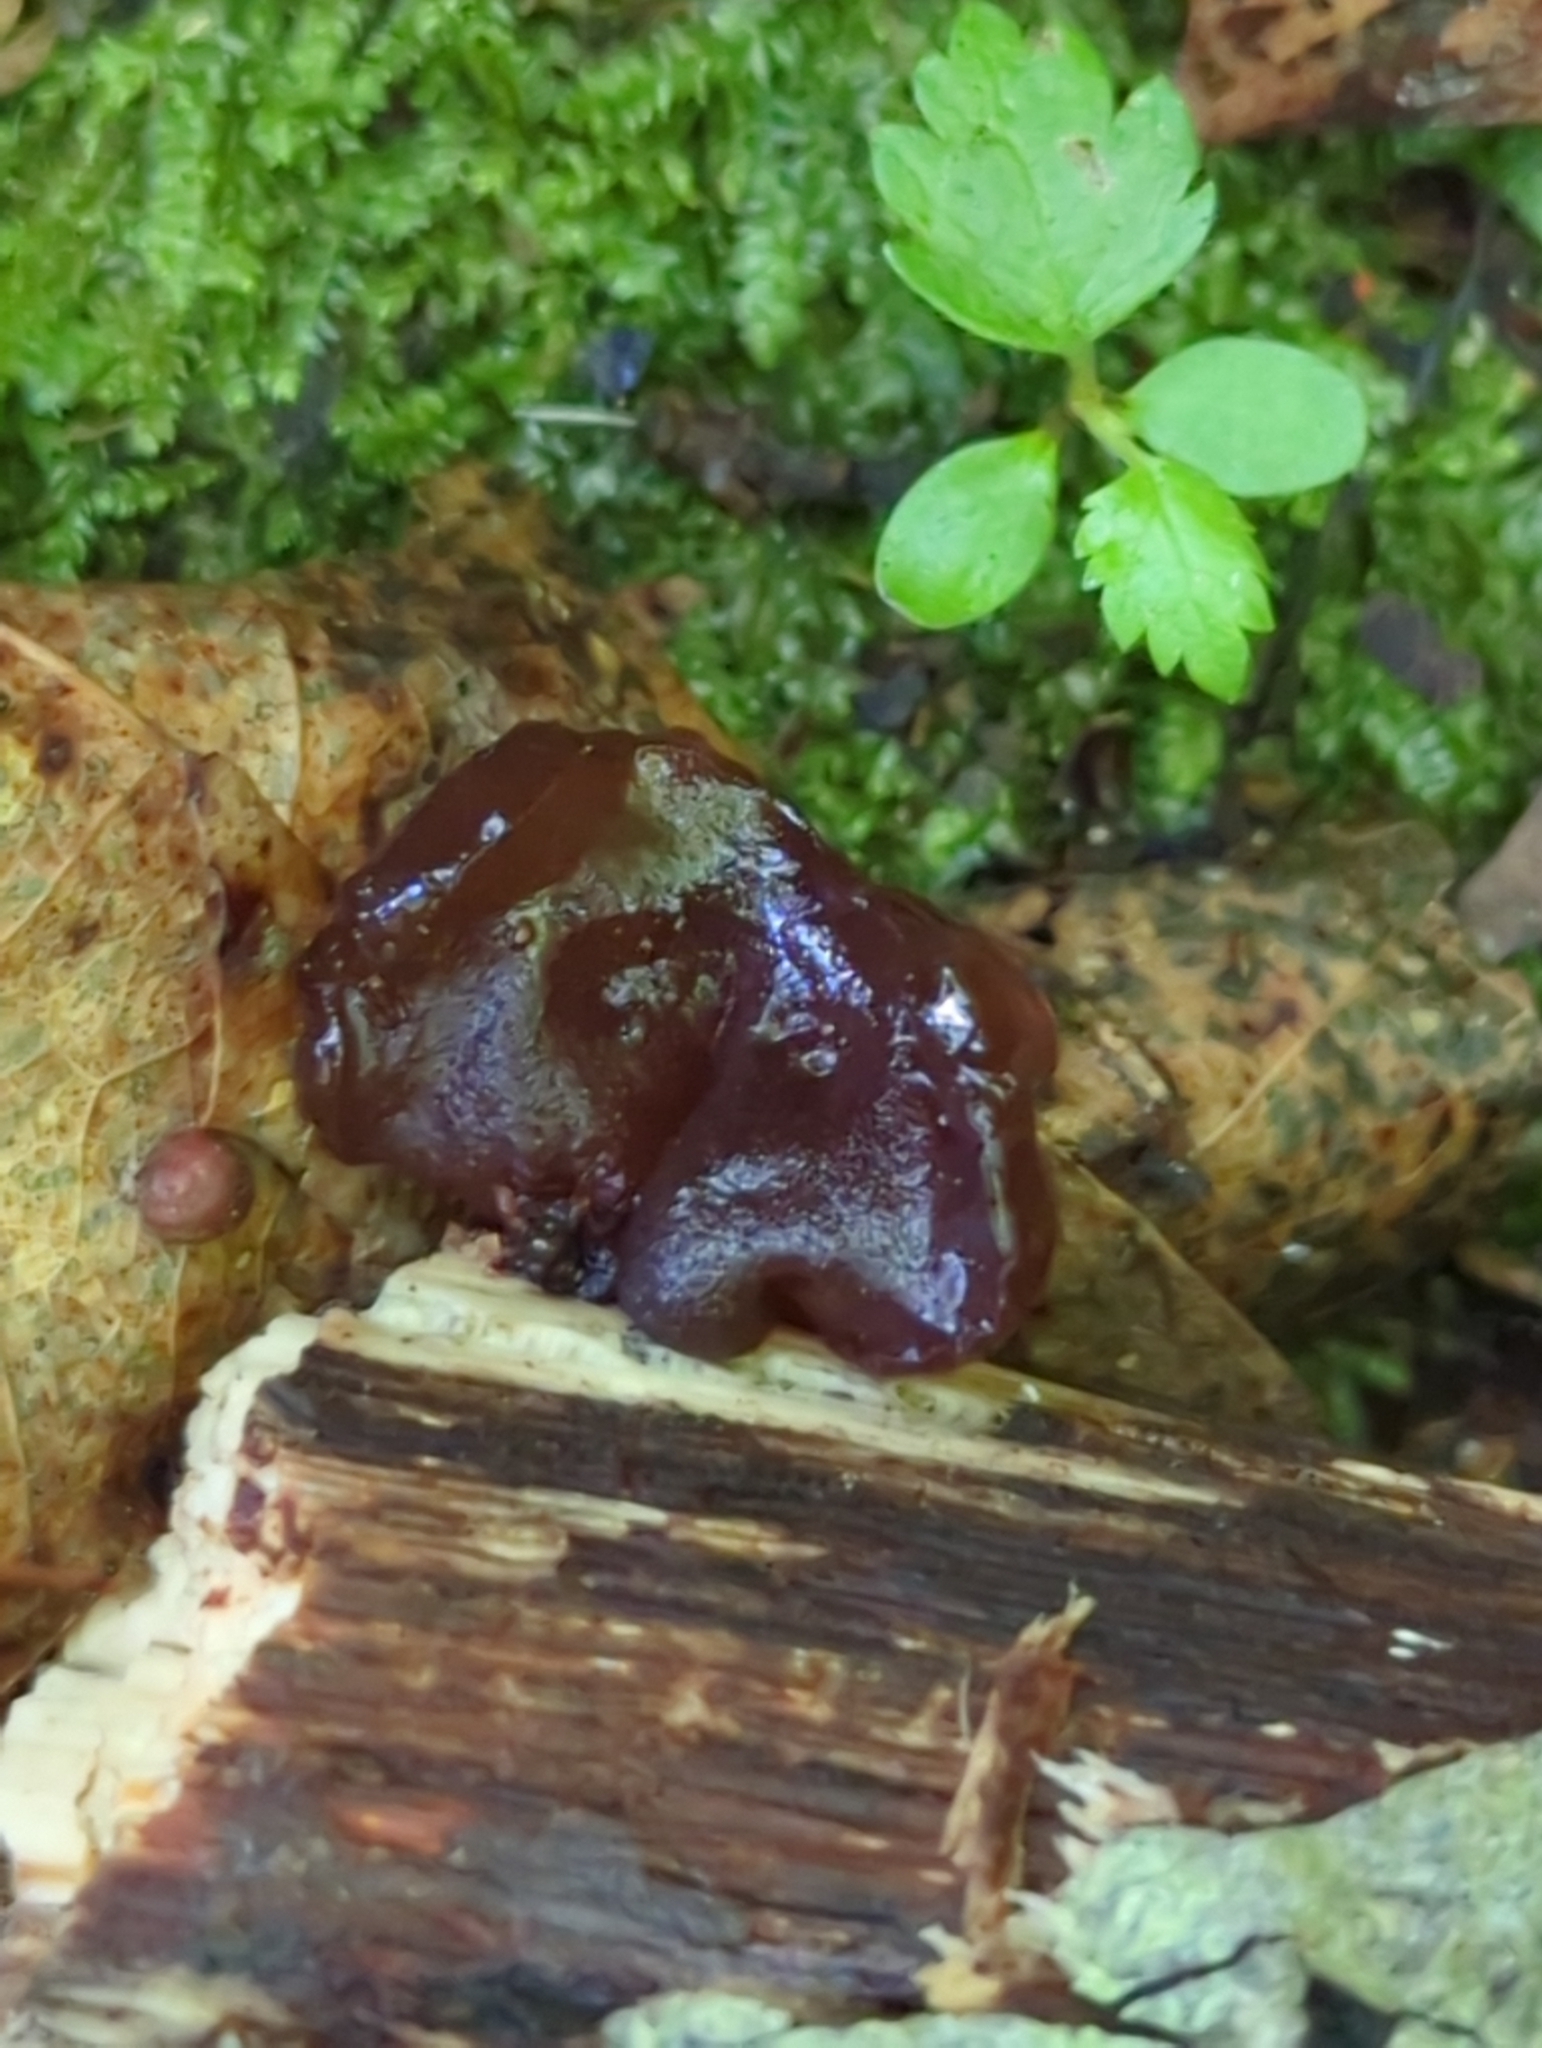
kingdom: Fungi
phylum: Basidiomycota
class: Agaricomycetes
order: Auriculariales
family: Auriculariaceae
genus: Exidia
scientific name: Exidia
